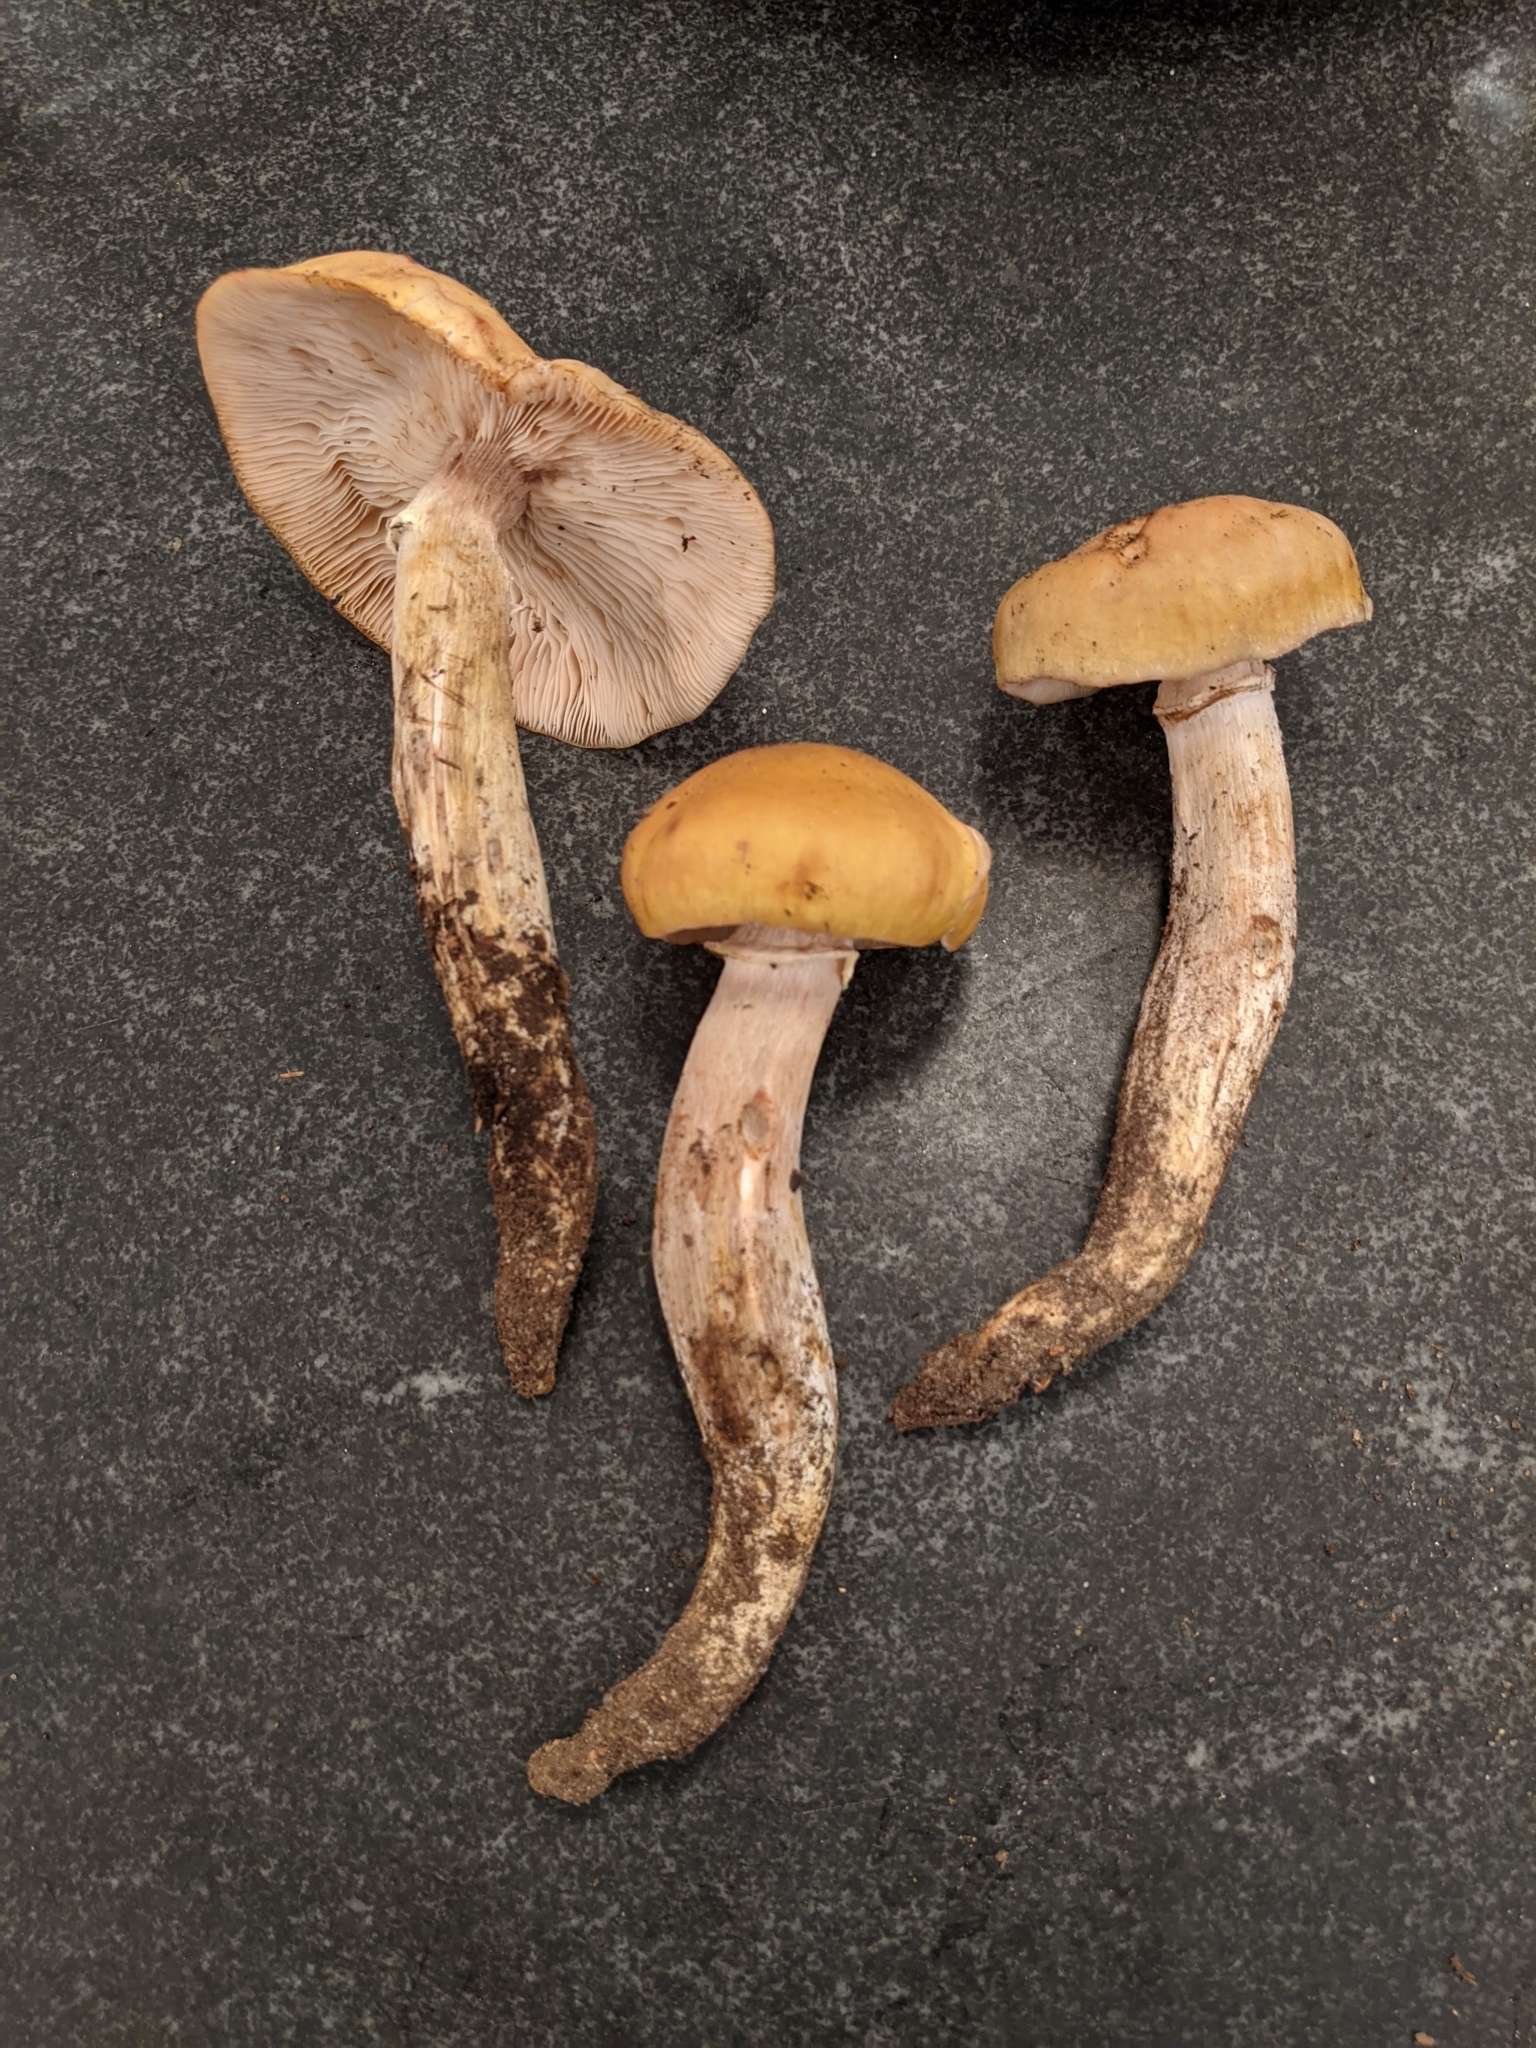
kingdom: Fungi
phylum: Basidiomycota
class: Agaricomycetes
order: Agaricales
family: Physalacriaceae
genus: Armillaria
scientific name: Armillaria mellea
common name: Honey fungus
